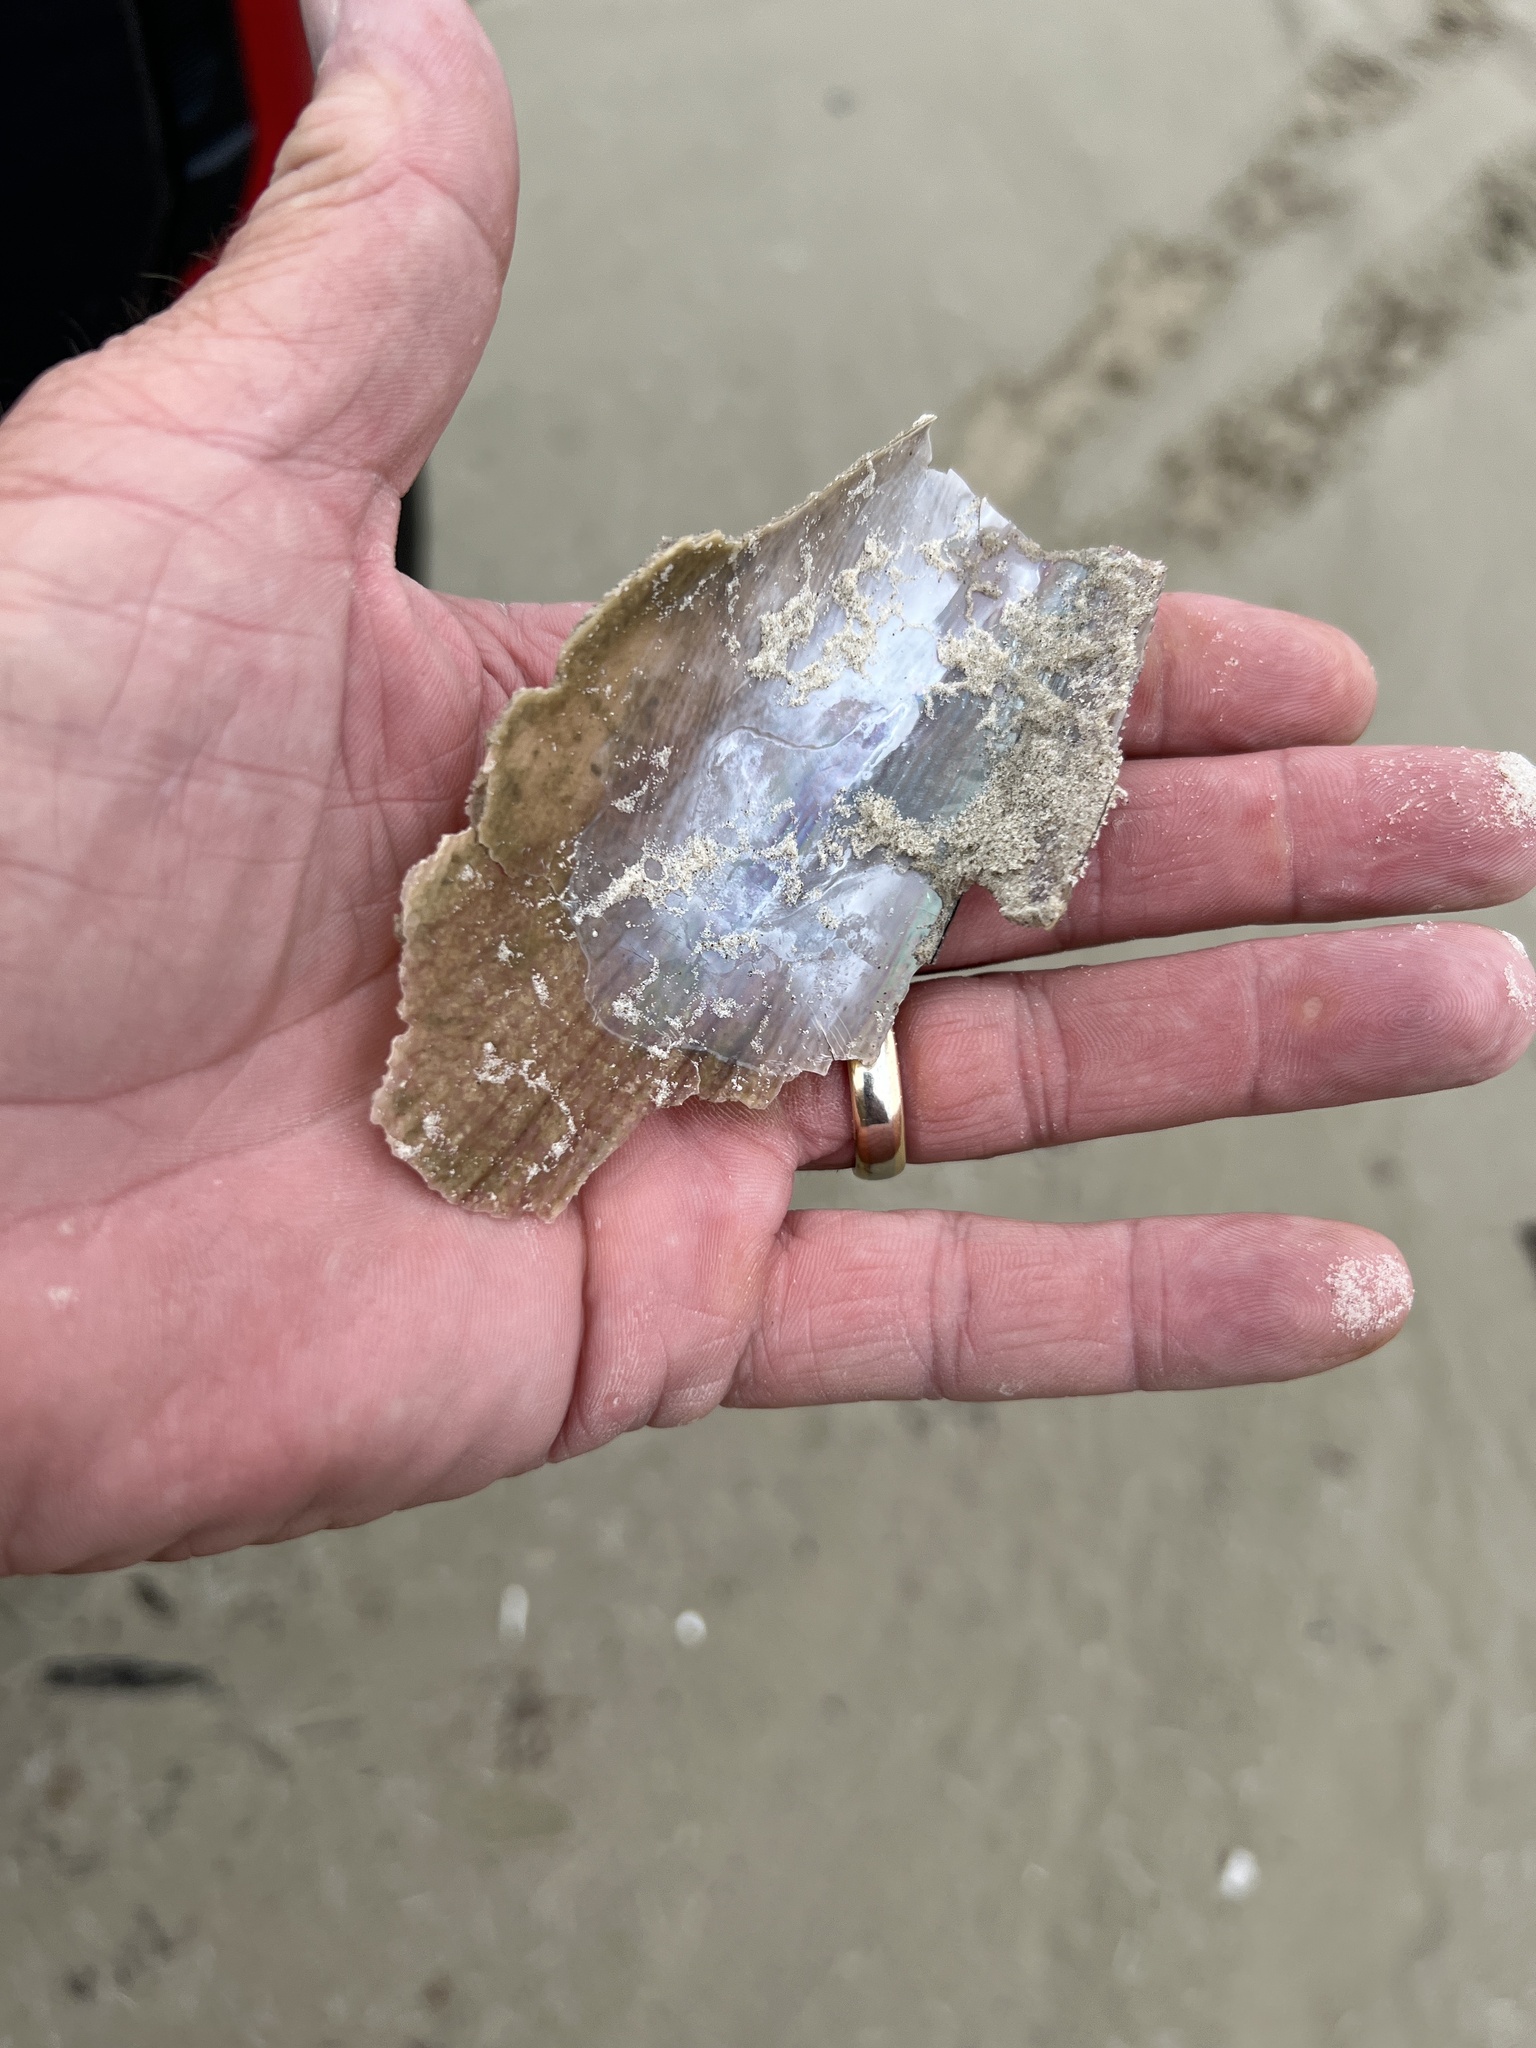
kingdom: Animalia
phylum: Mollusca
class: Bivalvia
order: Ostreida
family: Pinnidae
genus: Atrina
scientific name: Atrina serrata
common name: Saw-toothed penshell
